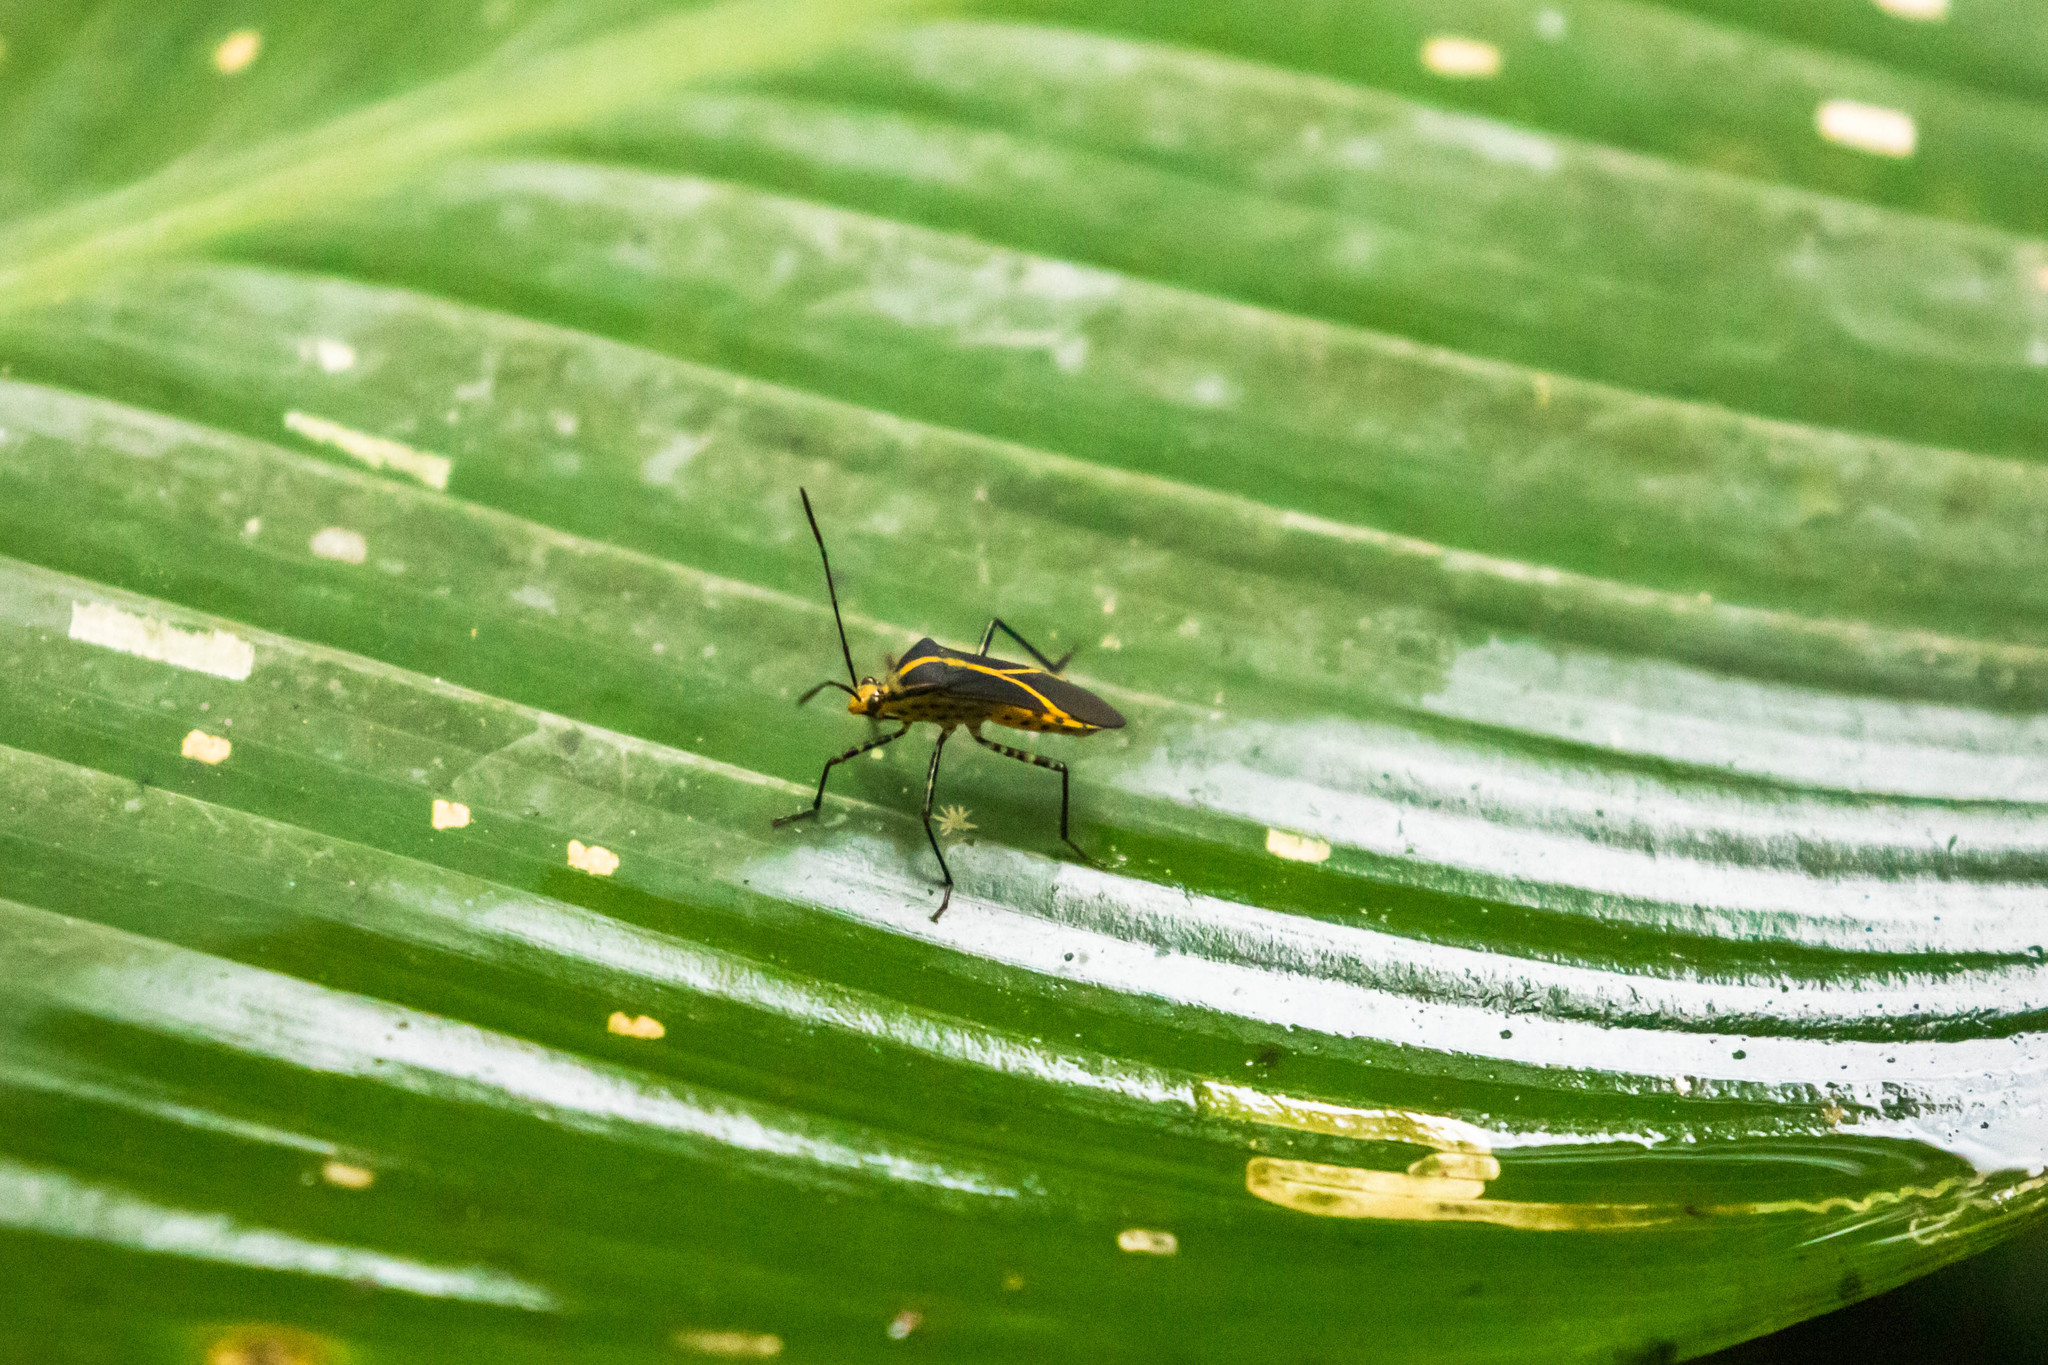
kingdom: Animalia
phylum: Arthropoda
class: Insecta
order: Hemiptera
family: Coreidae
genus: Hypselonotus
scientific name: Hypselonotus linea
